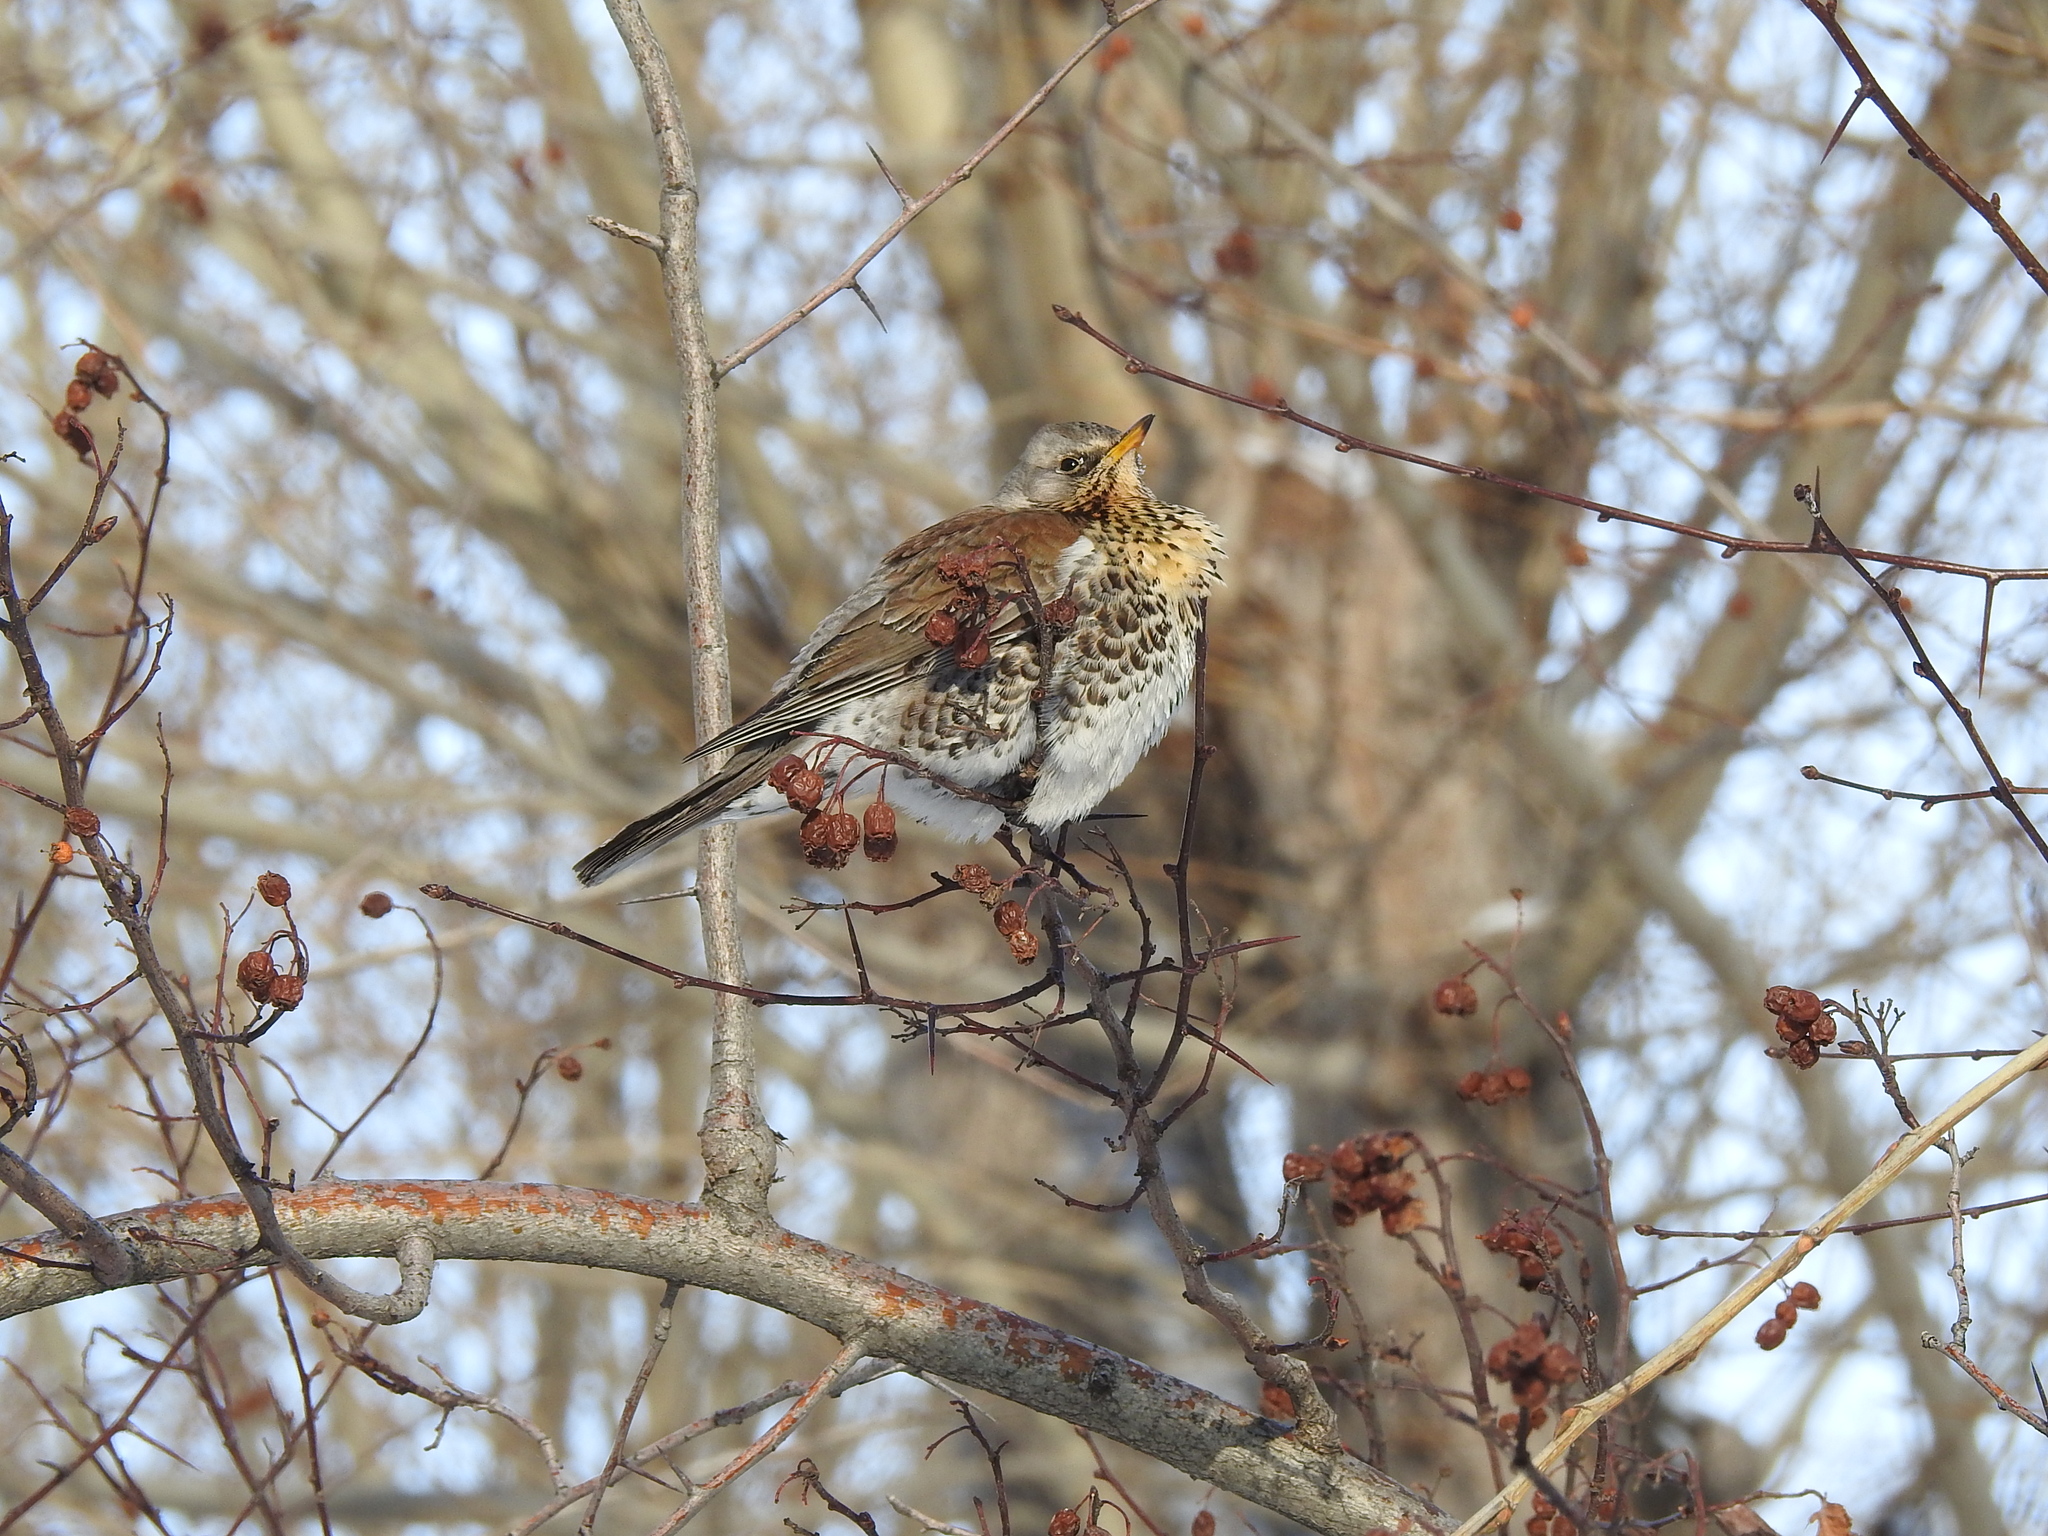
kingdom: Animalia
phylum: Chordata
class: Aves
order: Passeriformes
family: Turdidae
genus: Turdus
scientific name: Turdus pilaris
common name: Fieldfare
